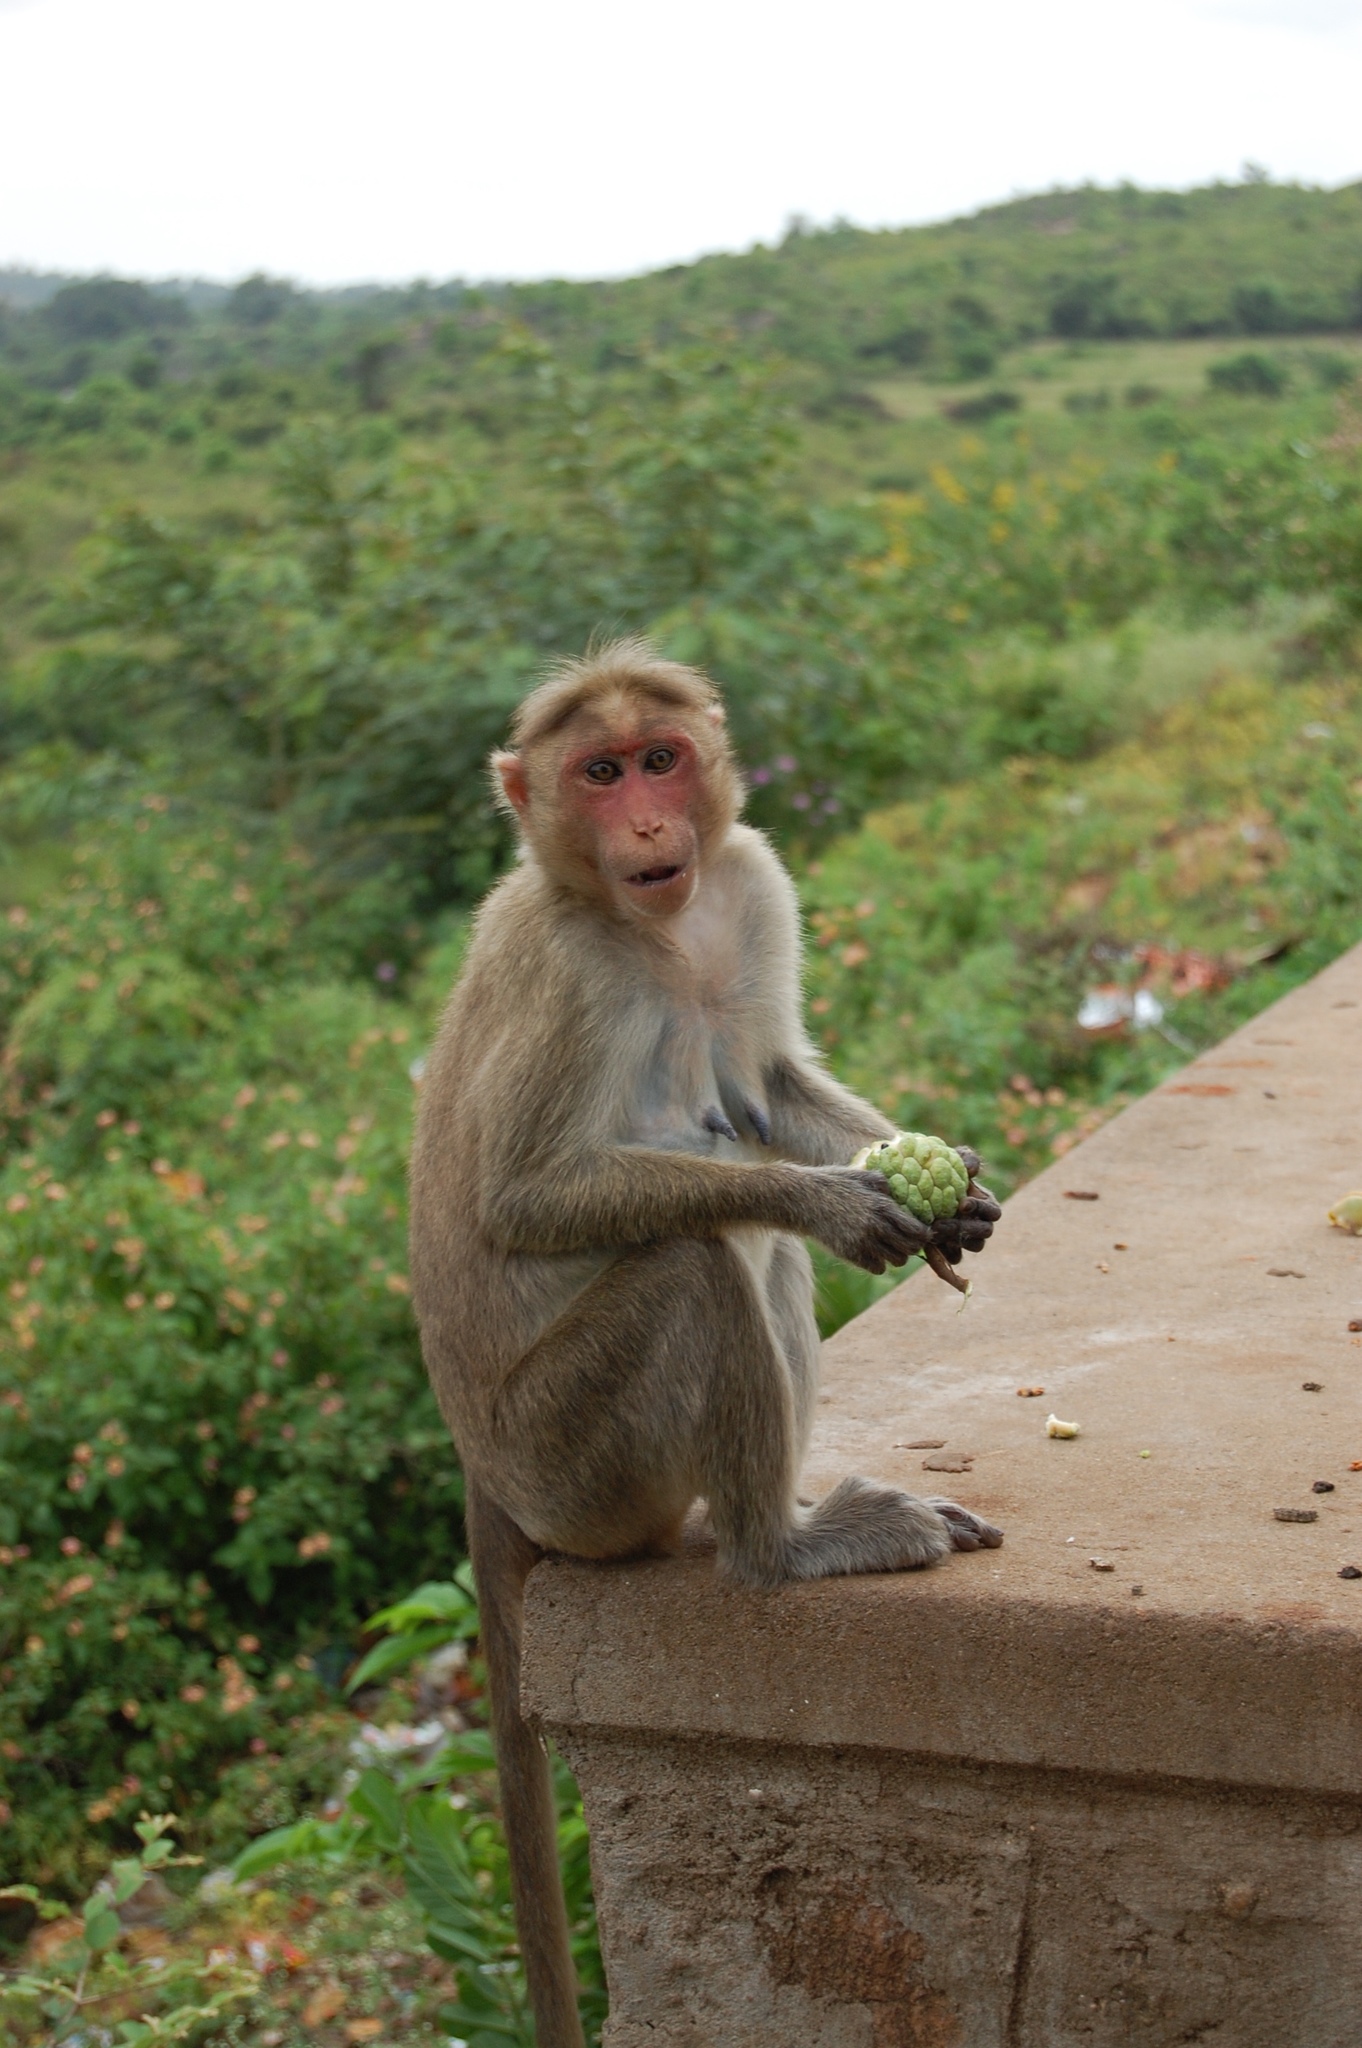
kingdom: Animalia
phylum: Chordata
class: Mammalia
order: Primates
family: Cercopithecidae
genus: Macaca
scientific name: Macaca radiata
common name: Bonnet macaque
